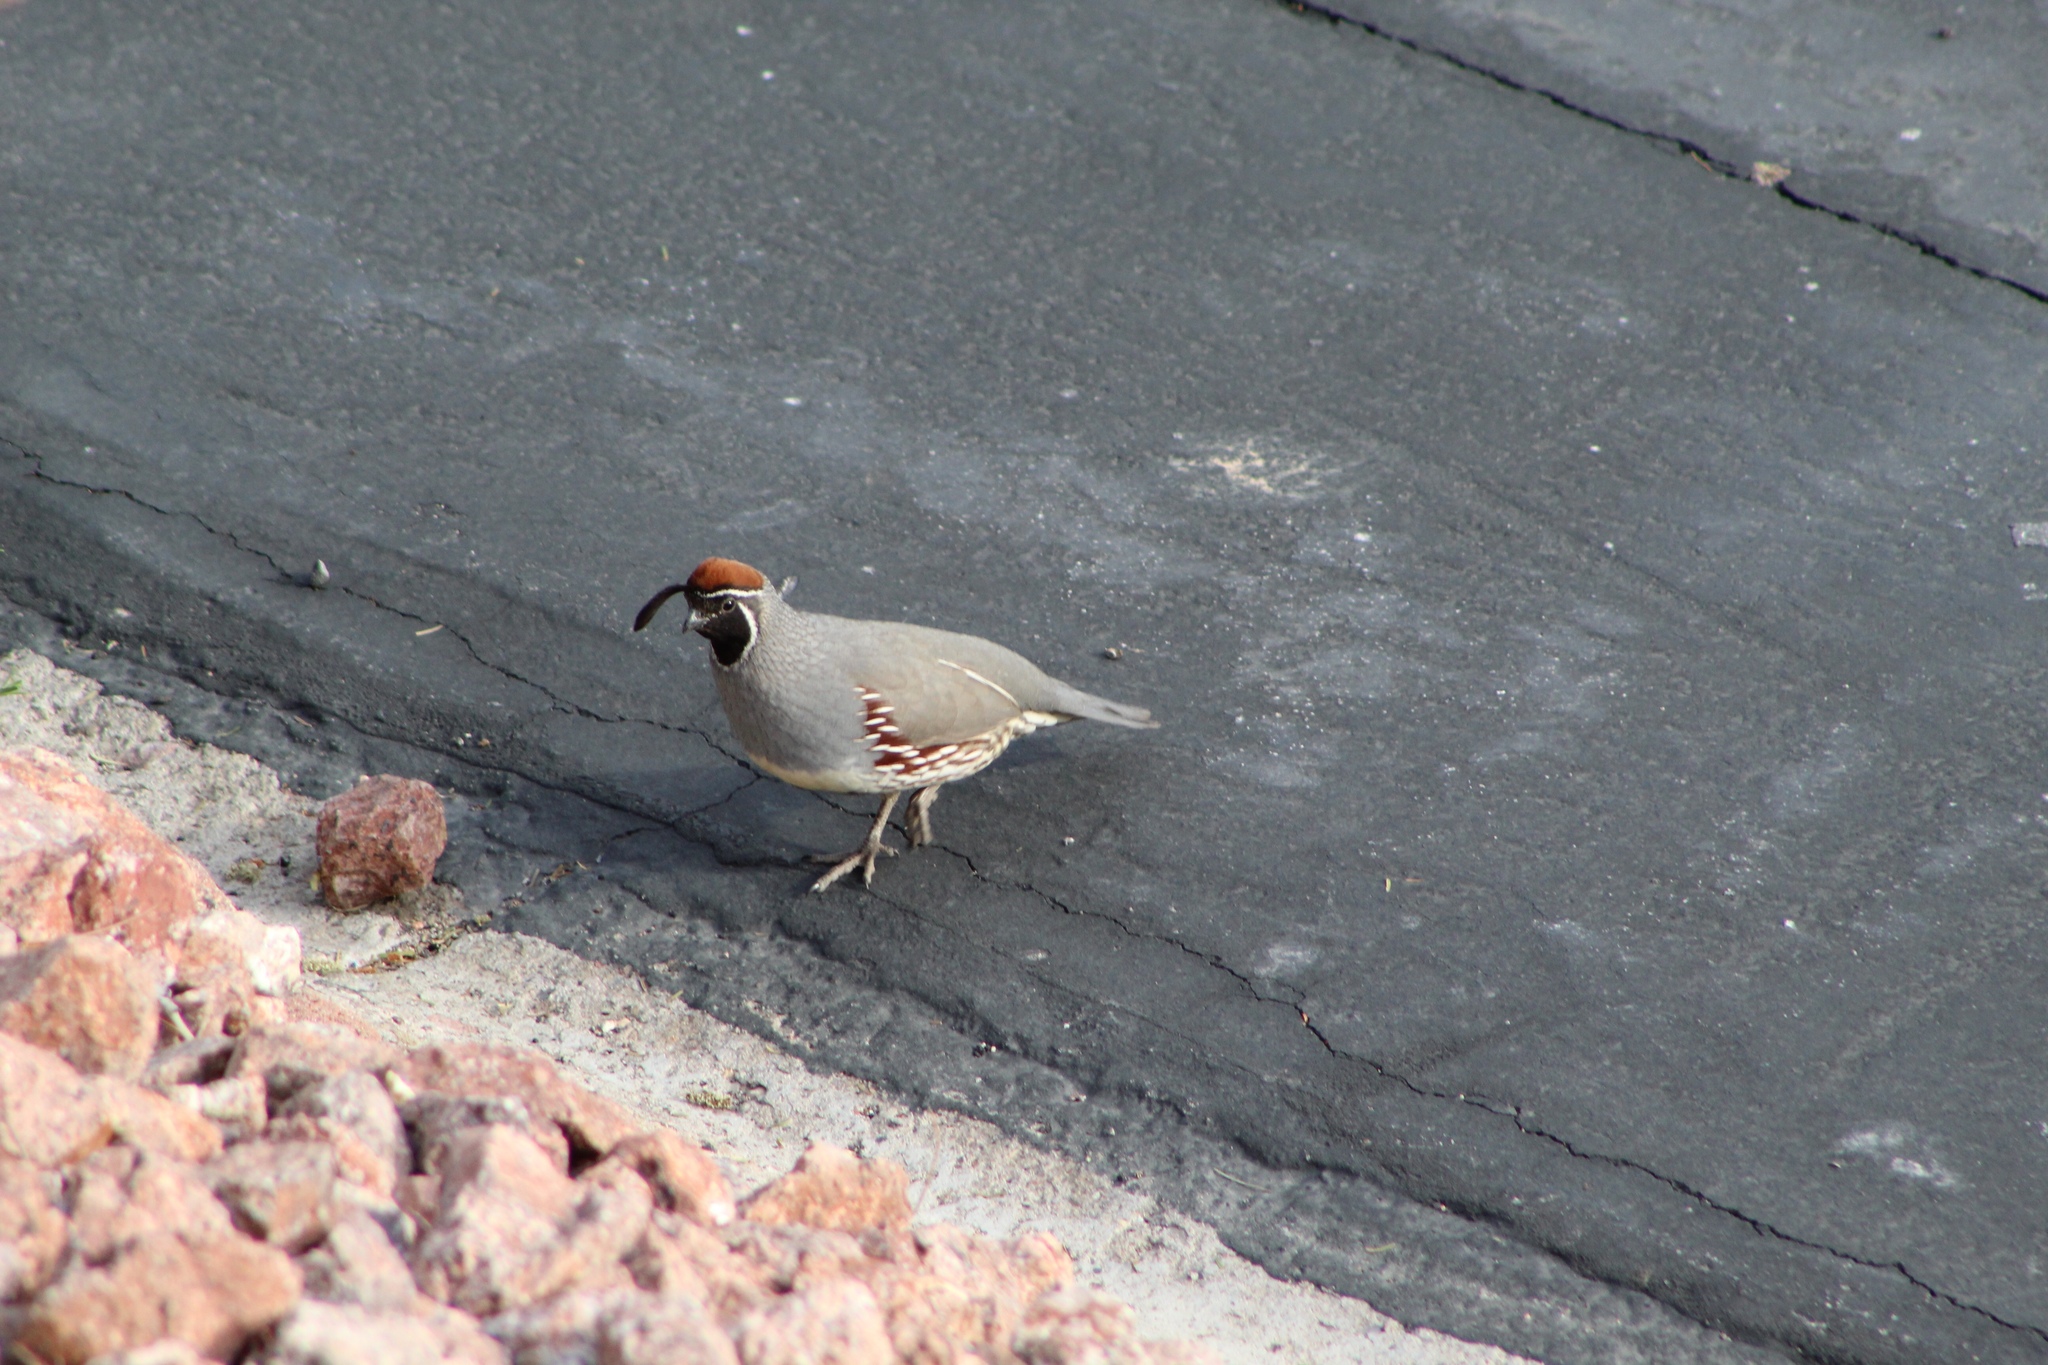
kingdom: Animalia
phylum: Chordata
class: Aves
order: Galliformes
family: Odontophoridae
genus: Callipepla
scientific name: Callipepla gambelii
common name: Gambel's quail
